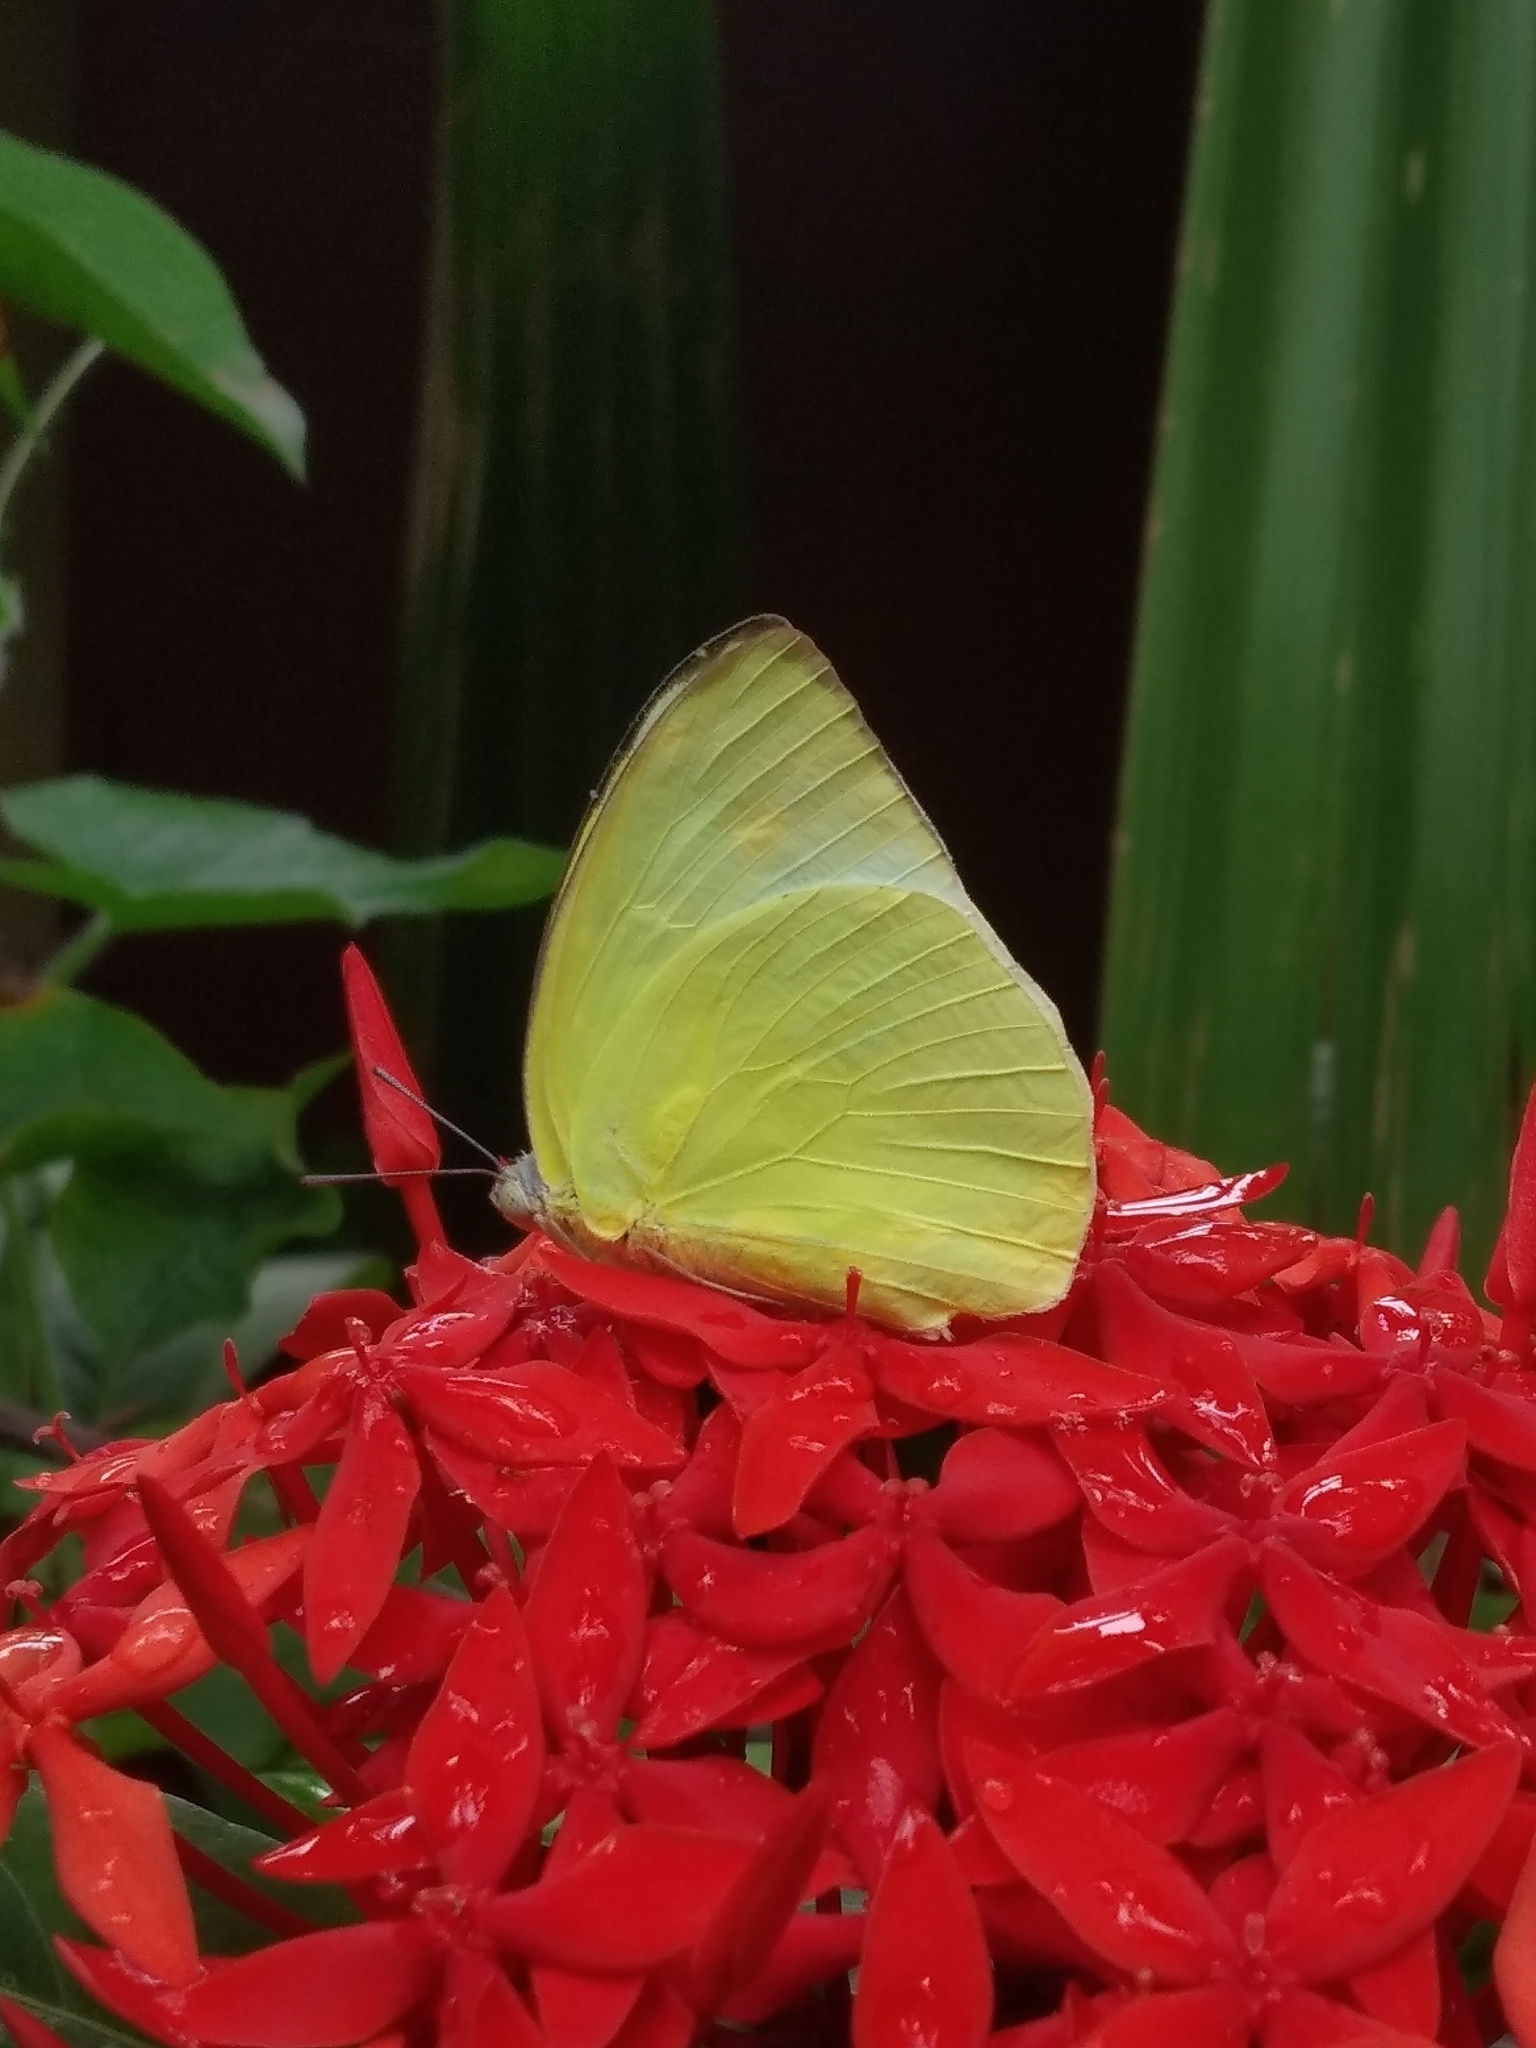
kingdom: Animalia
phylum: Arthropoda
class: Insecta
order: Lepidoptera
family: Pieridae
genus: Catopsilia
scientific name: Catopsilia pomona
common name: Common emigrant
